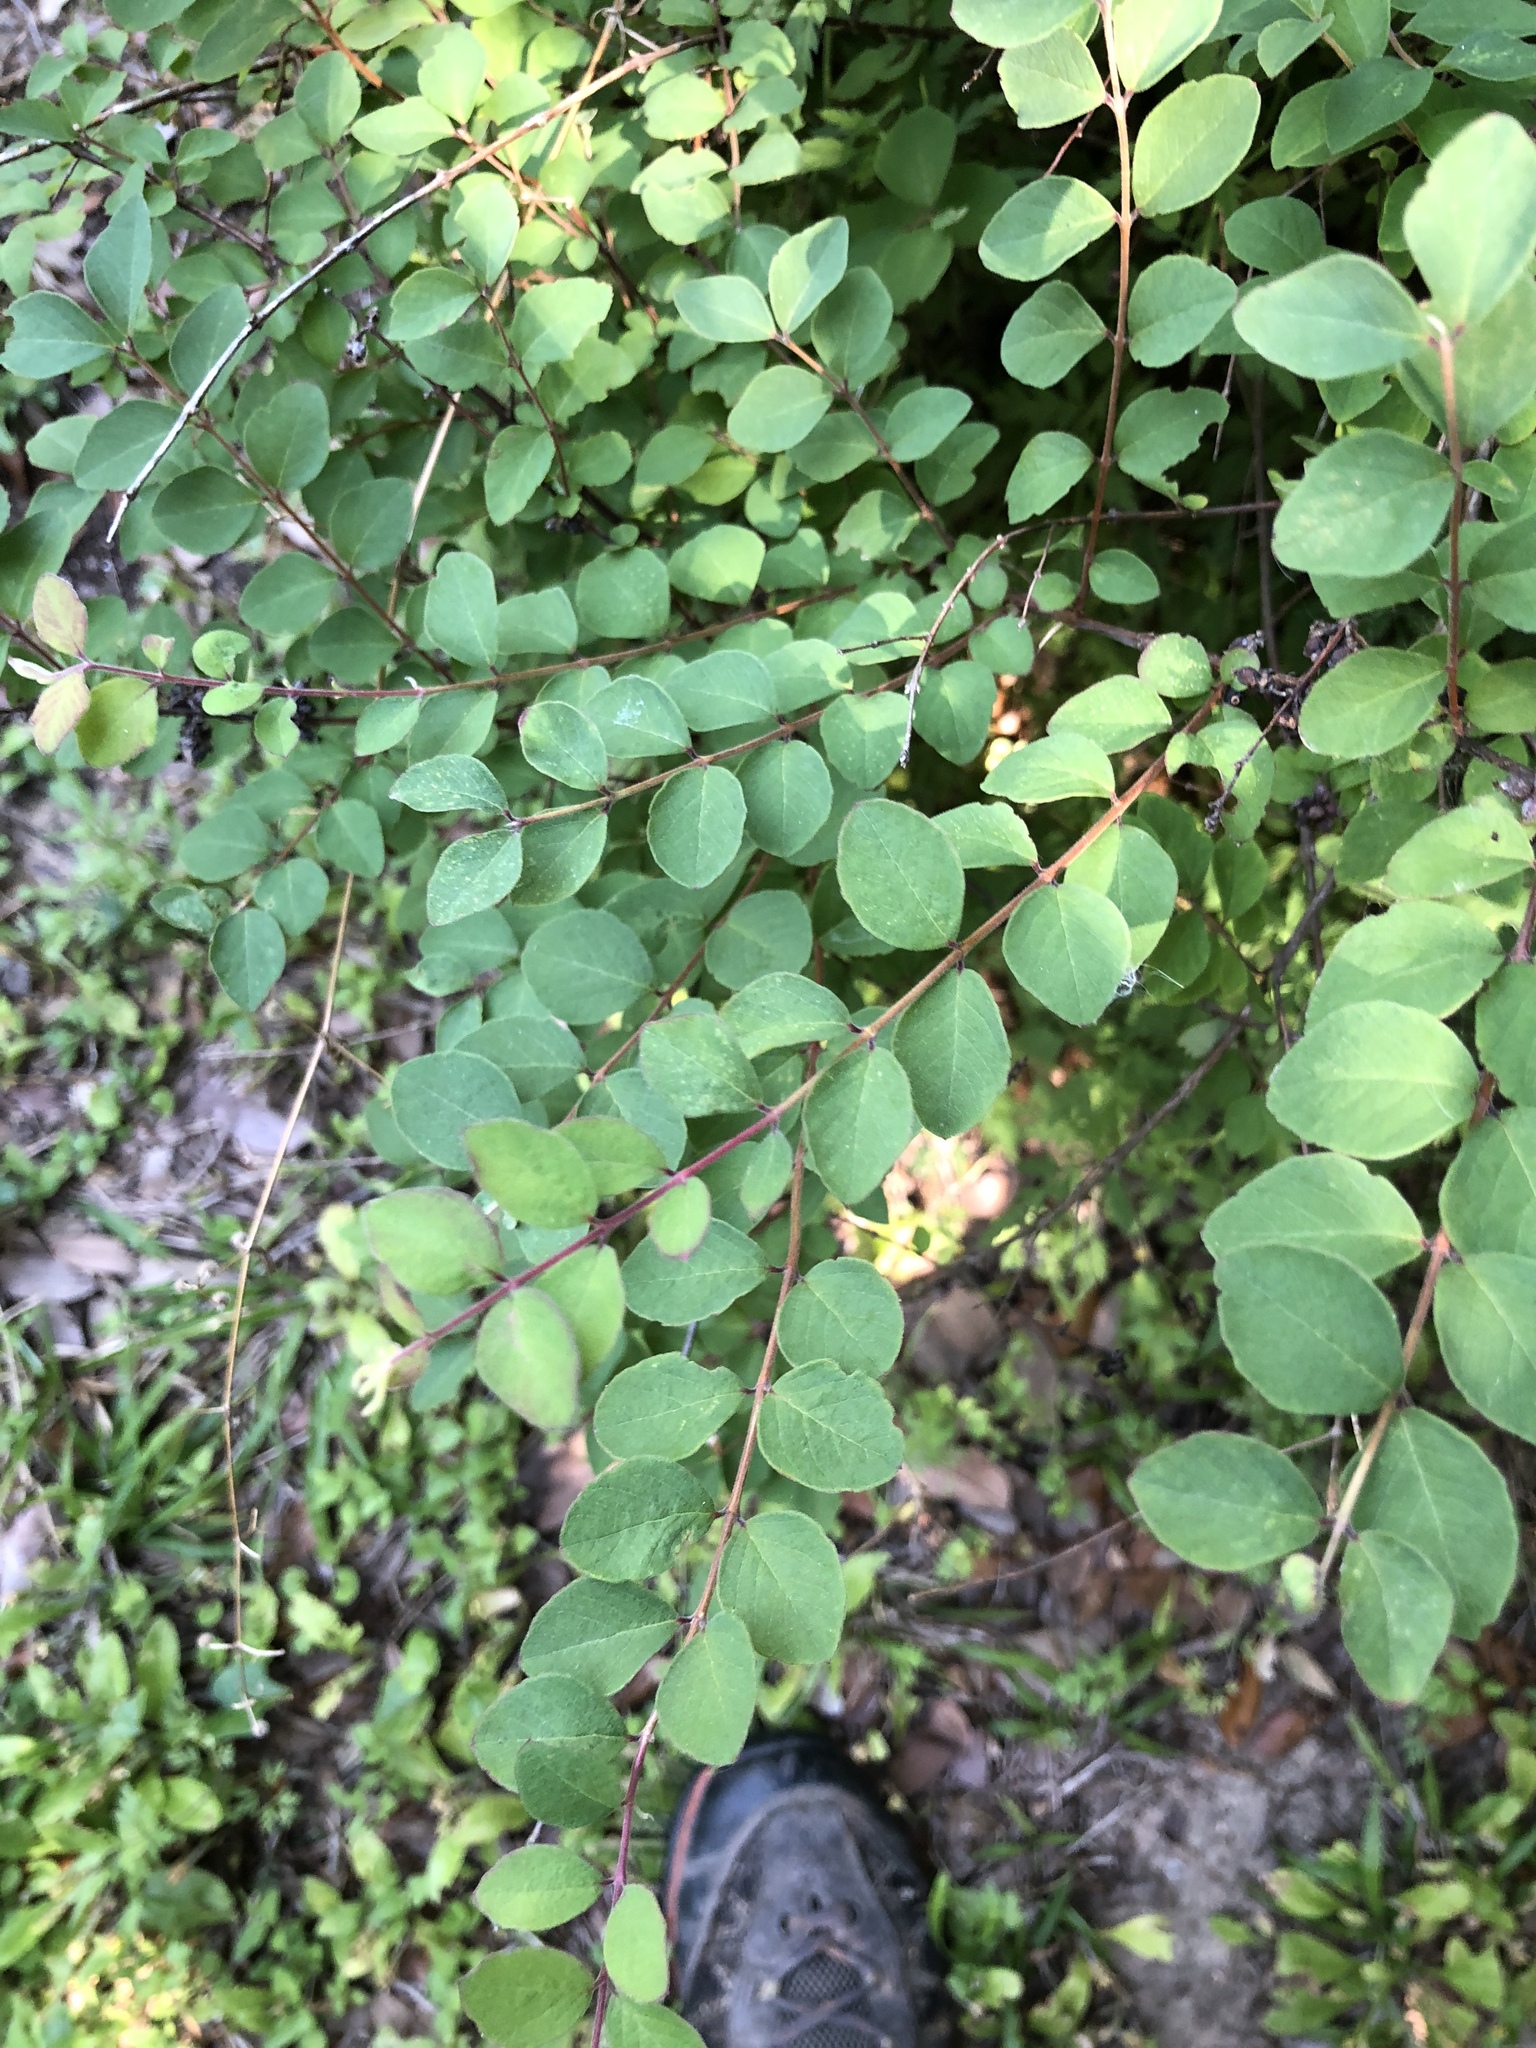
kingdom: Plantae
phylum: Tracheophyta
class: Magnoliopsida
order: Dipsacales
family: Caprifoliaceae
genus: Symphoricarpos
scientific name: Symphoricarpos orbiculatus
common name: Coralberry
